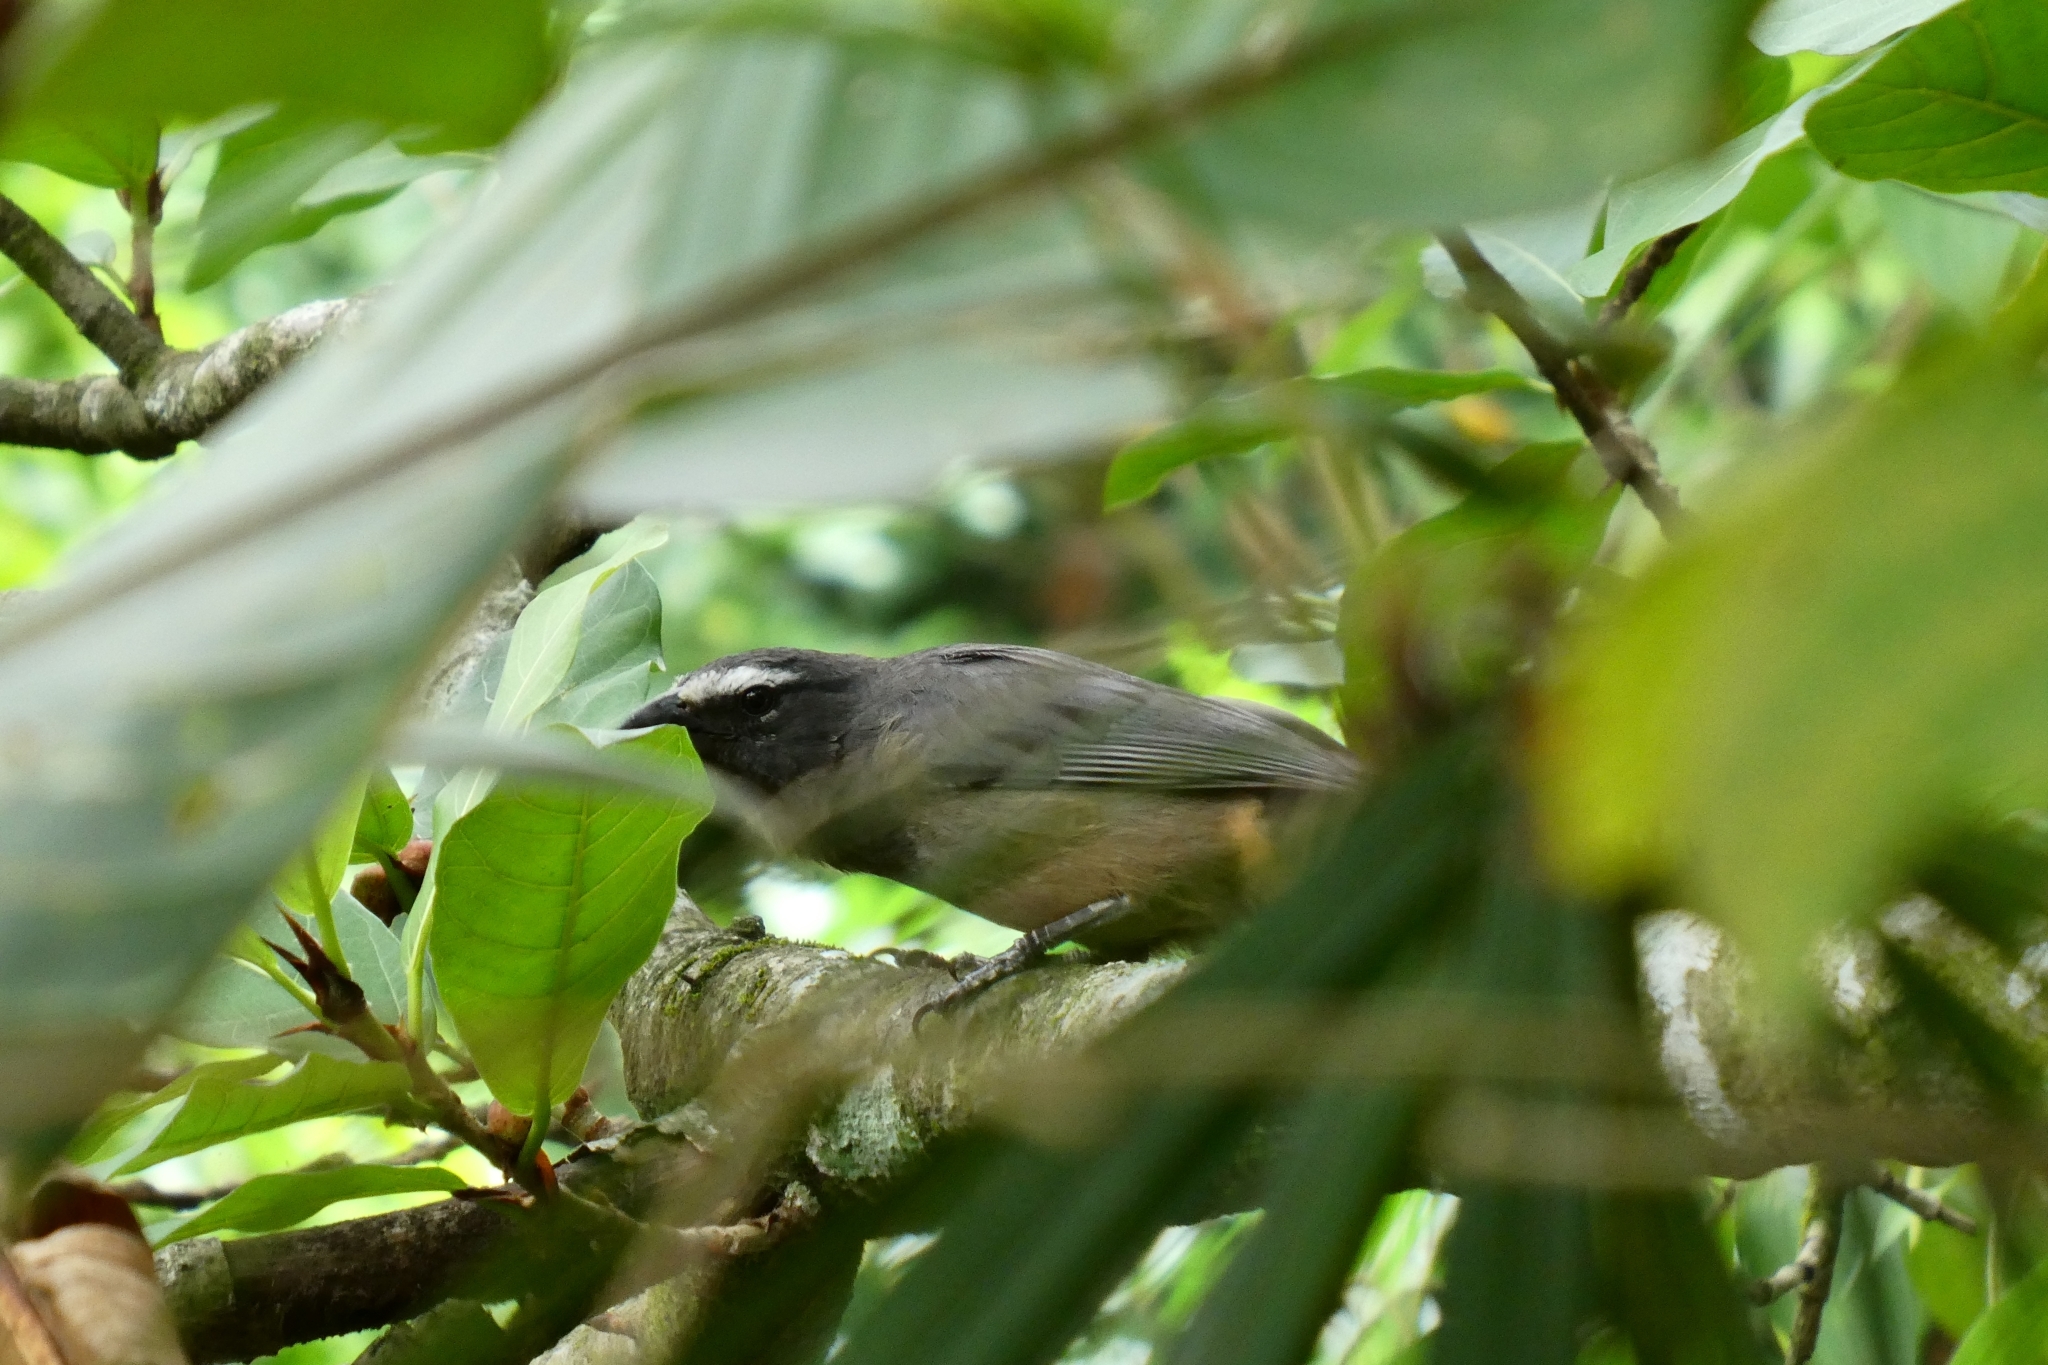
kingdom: Animalia
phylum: Chordata
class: Aves
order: Passeriformes
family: Thraupidae
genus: Saltator
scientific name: Saltator grandis
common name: Cinnamon-bellied saltator
